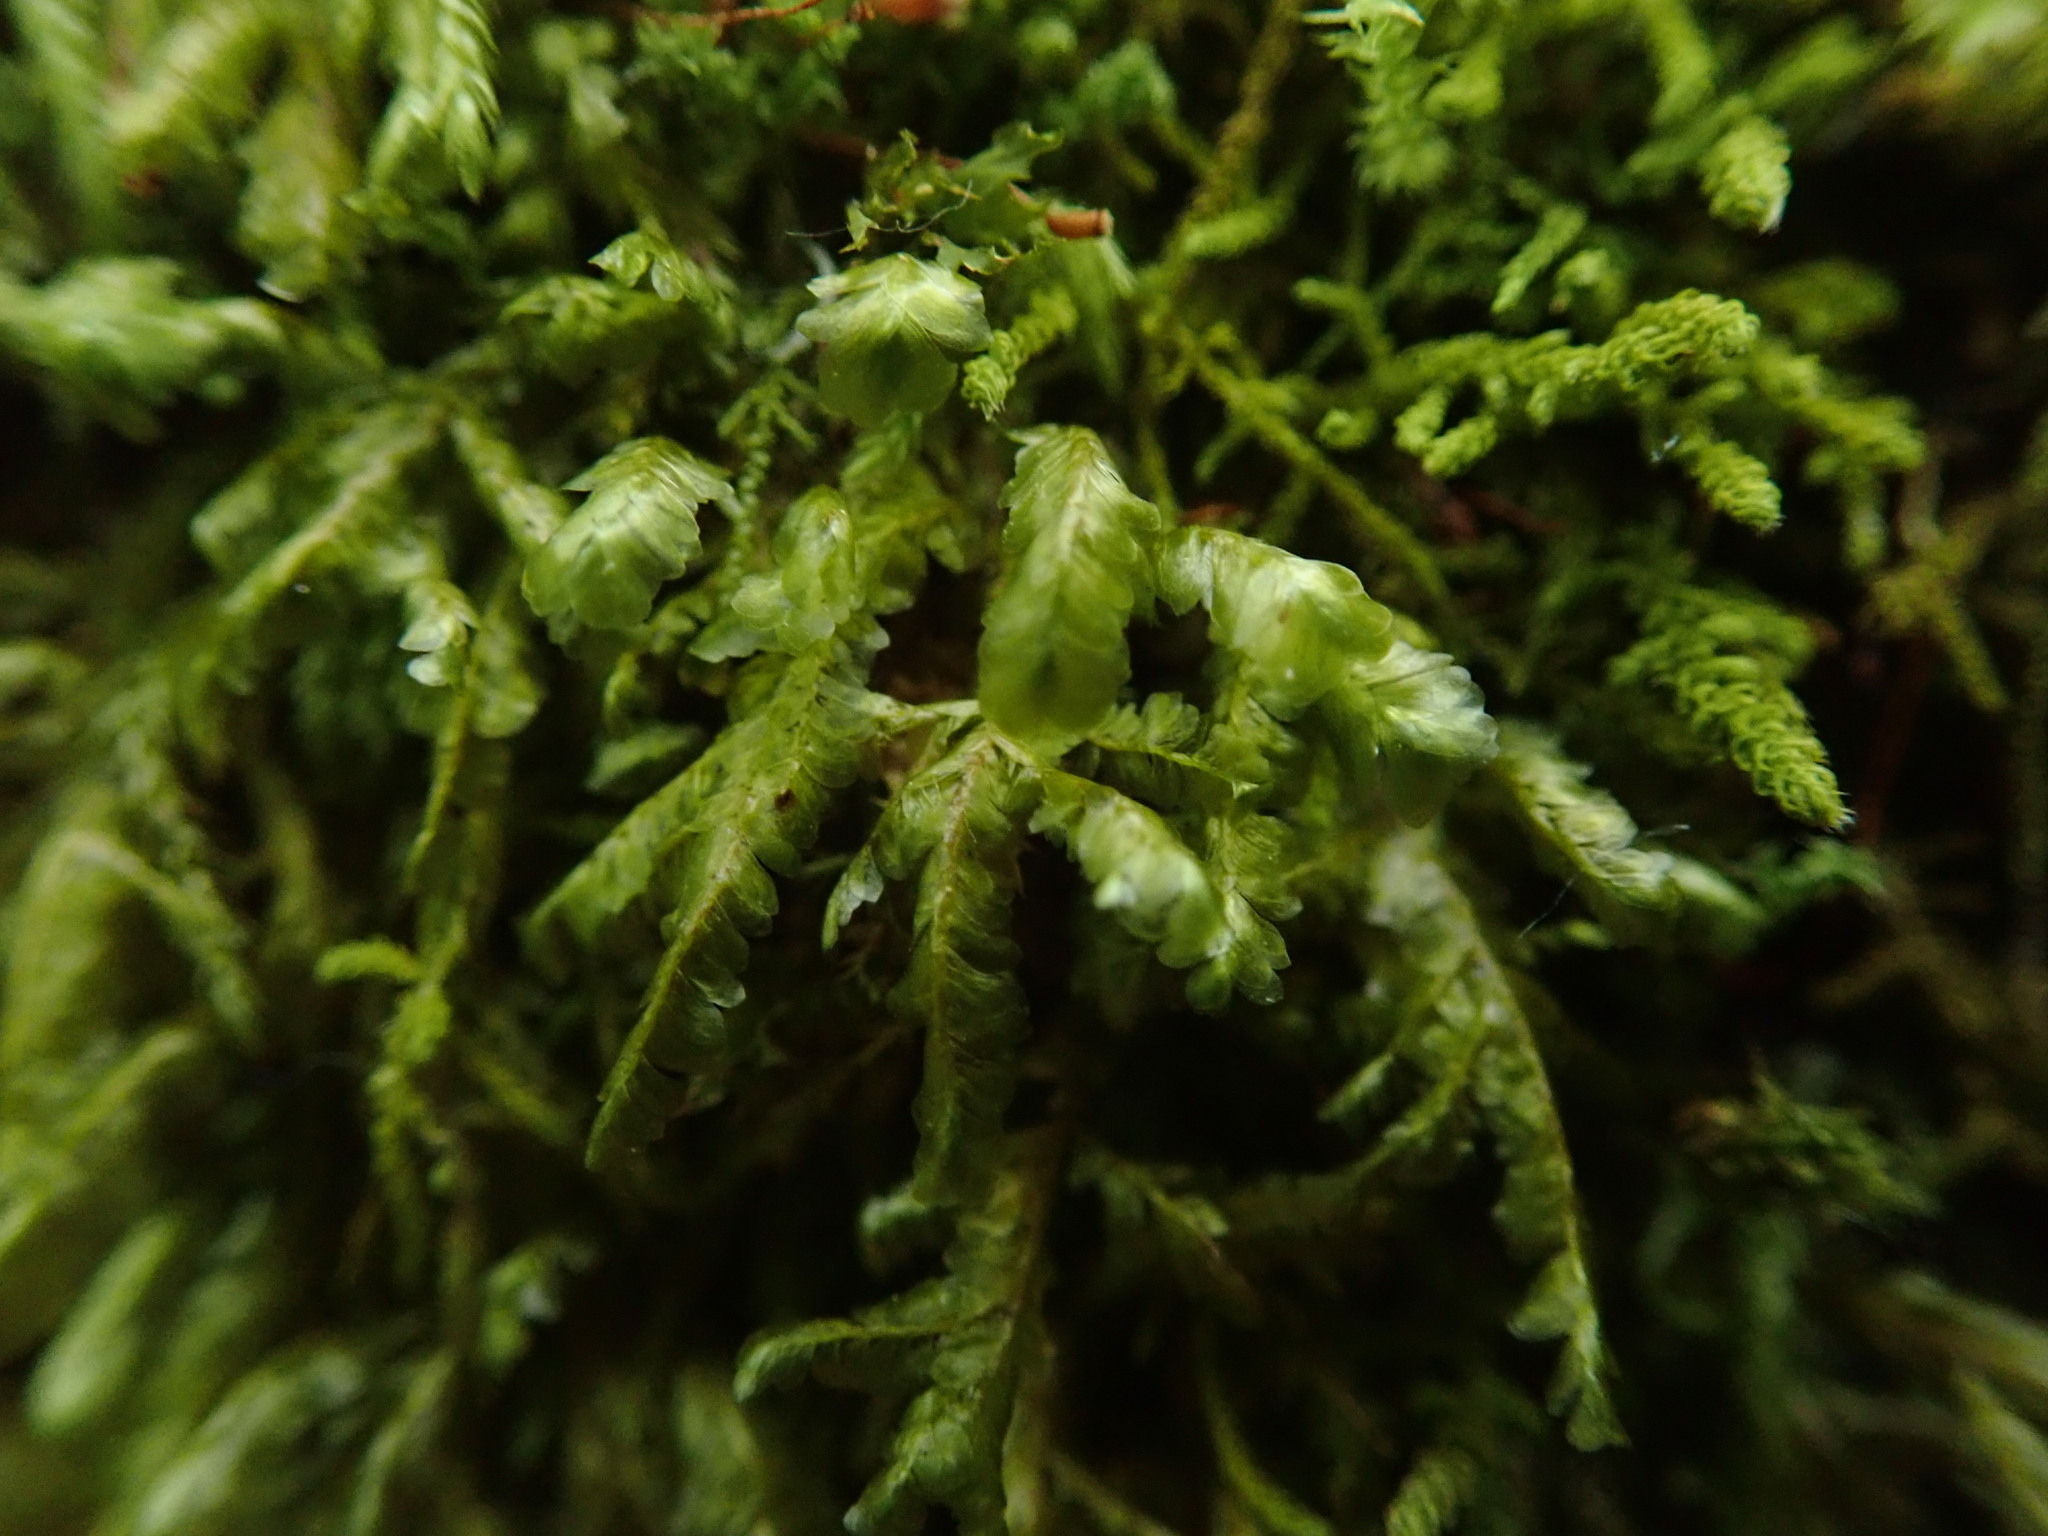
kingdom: Plantae
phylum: Bryophyta
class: Bryopsida
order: Hypnales
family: Neckeraceae
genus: Homalia
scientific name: Homalia trichomanoides
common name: Lime homalia moss
